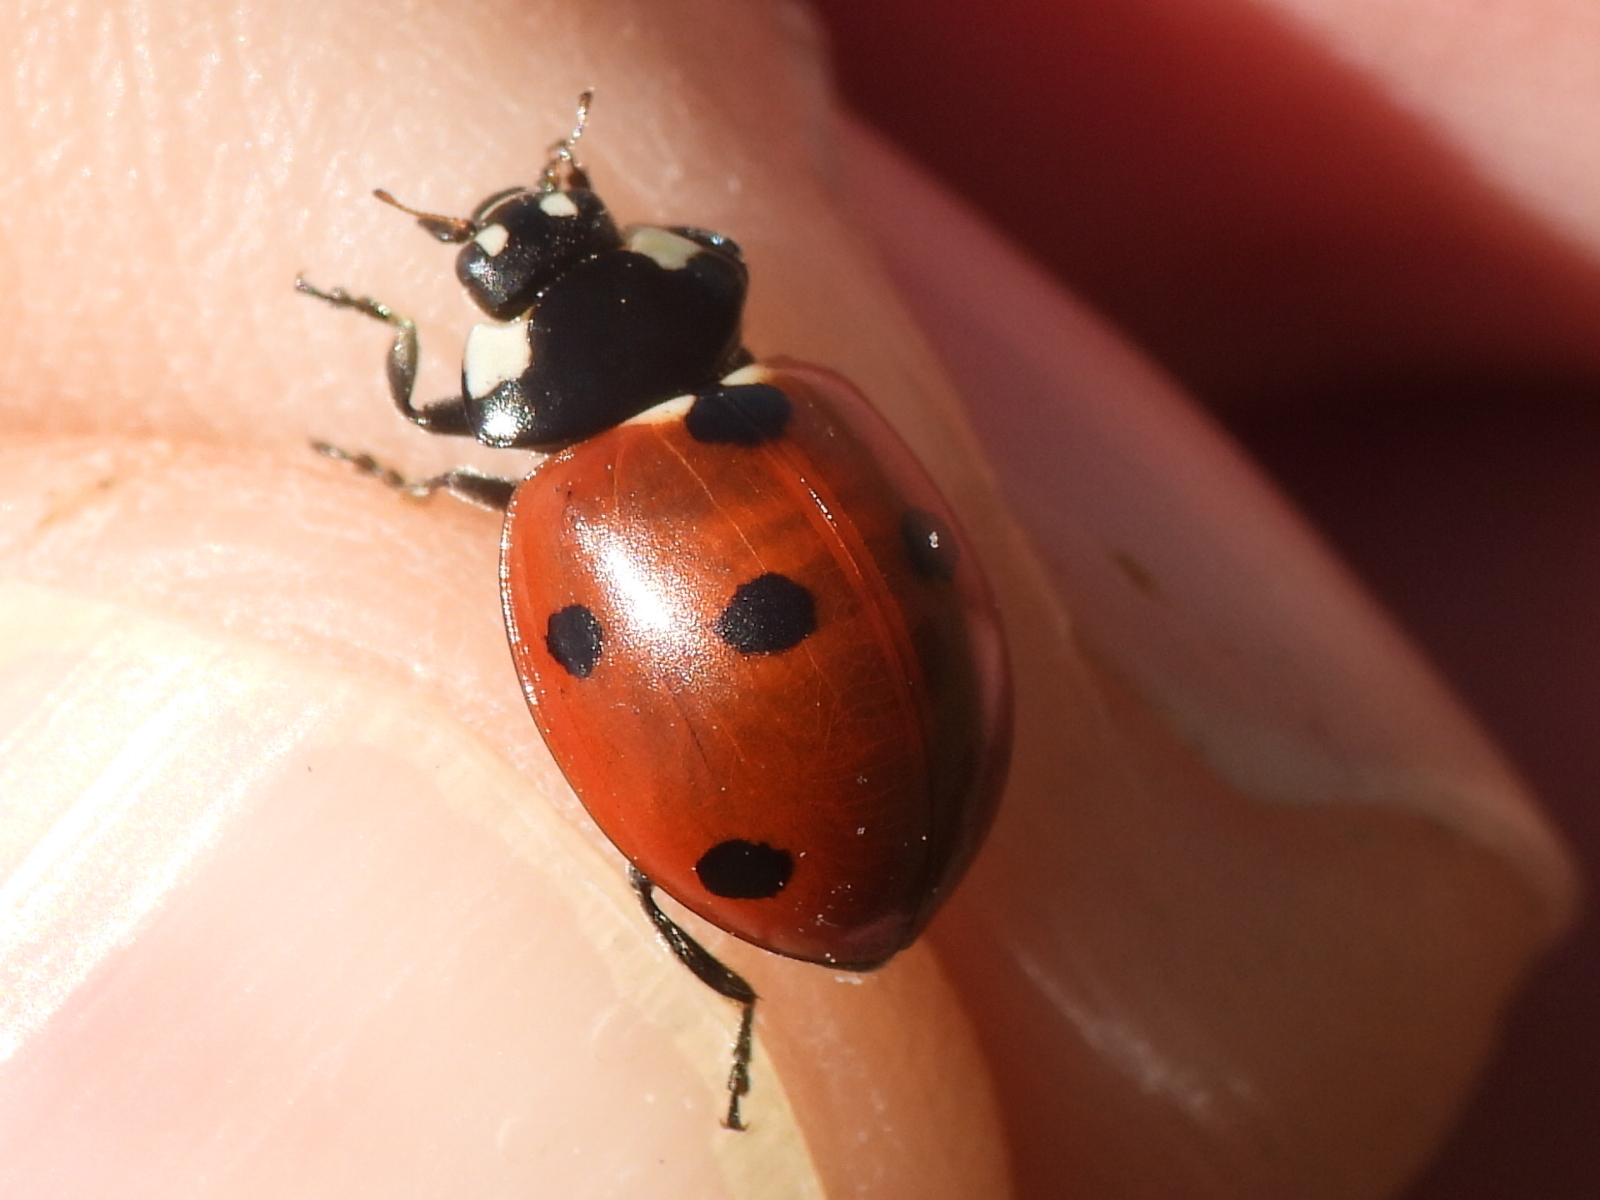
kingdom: Animalia
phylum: Arthropoda
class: Insecta
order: Coleoptera
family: Coccinellidae
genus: Coccinella
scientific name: Coccinella septempunctata
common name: Sevenspotted lady beetle
